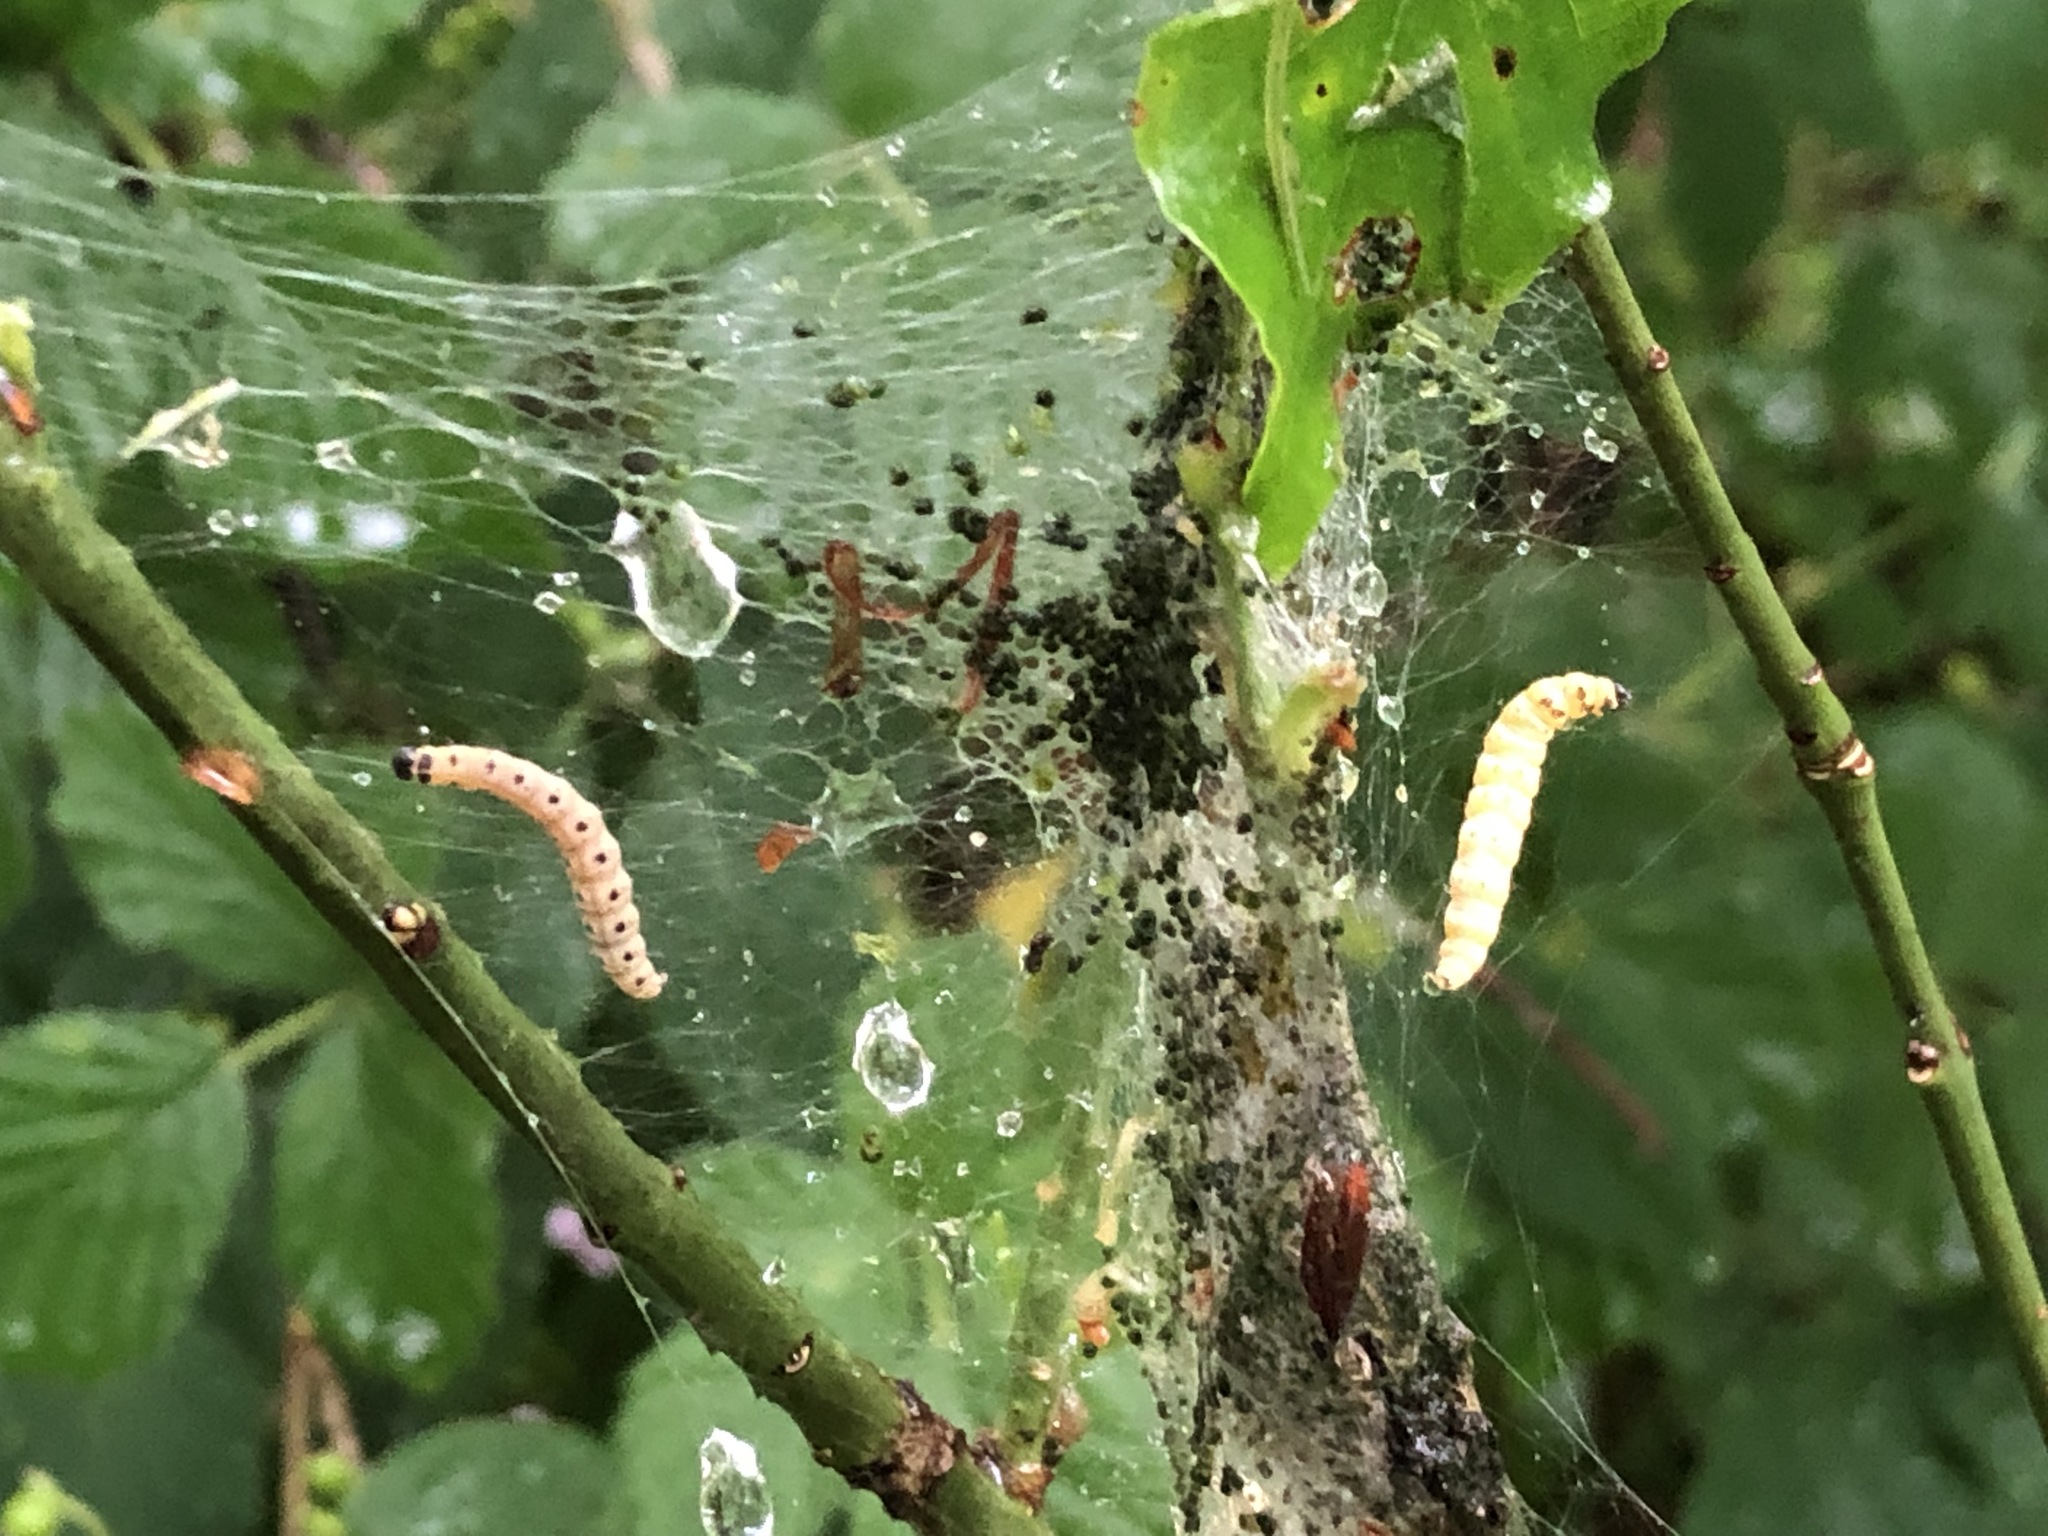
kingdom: Animalia
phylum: Arthropoda
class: Insecta
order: Lepidoptera
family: Yponomeutidae
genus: Yponomeuta
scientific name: Yponomeuta cagnagellus
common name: Spindle ermine
